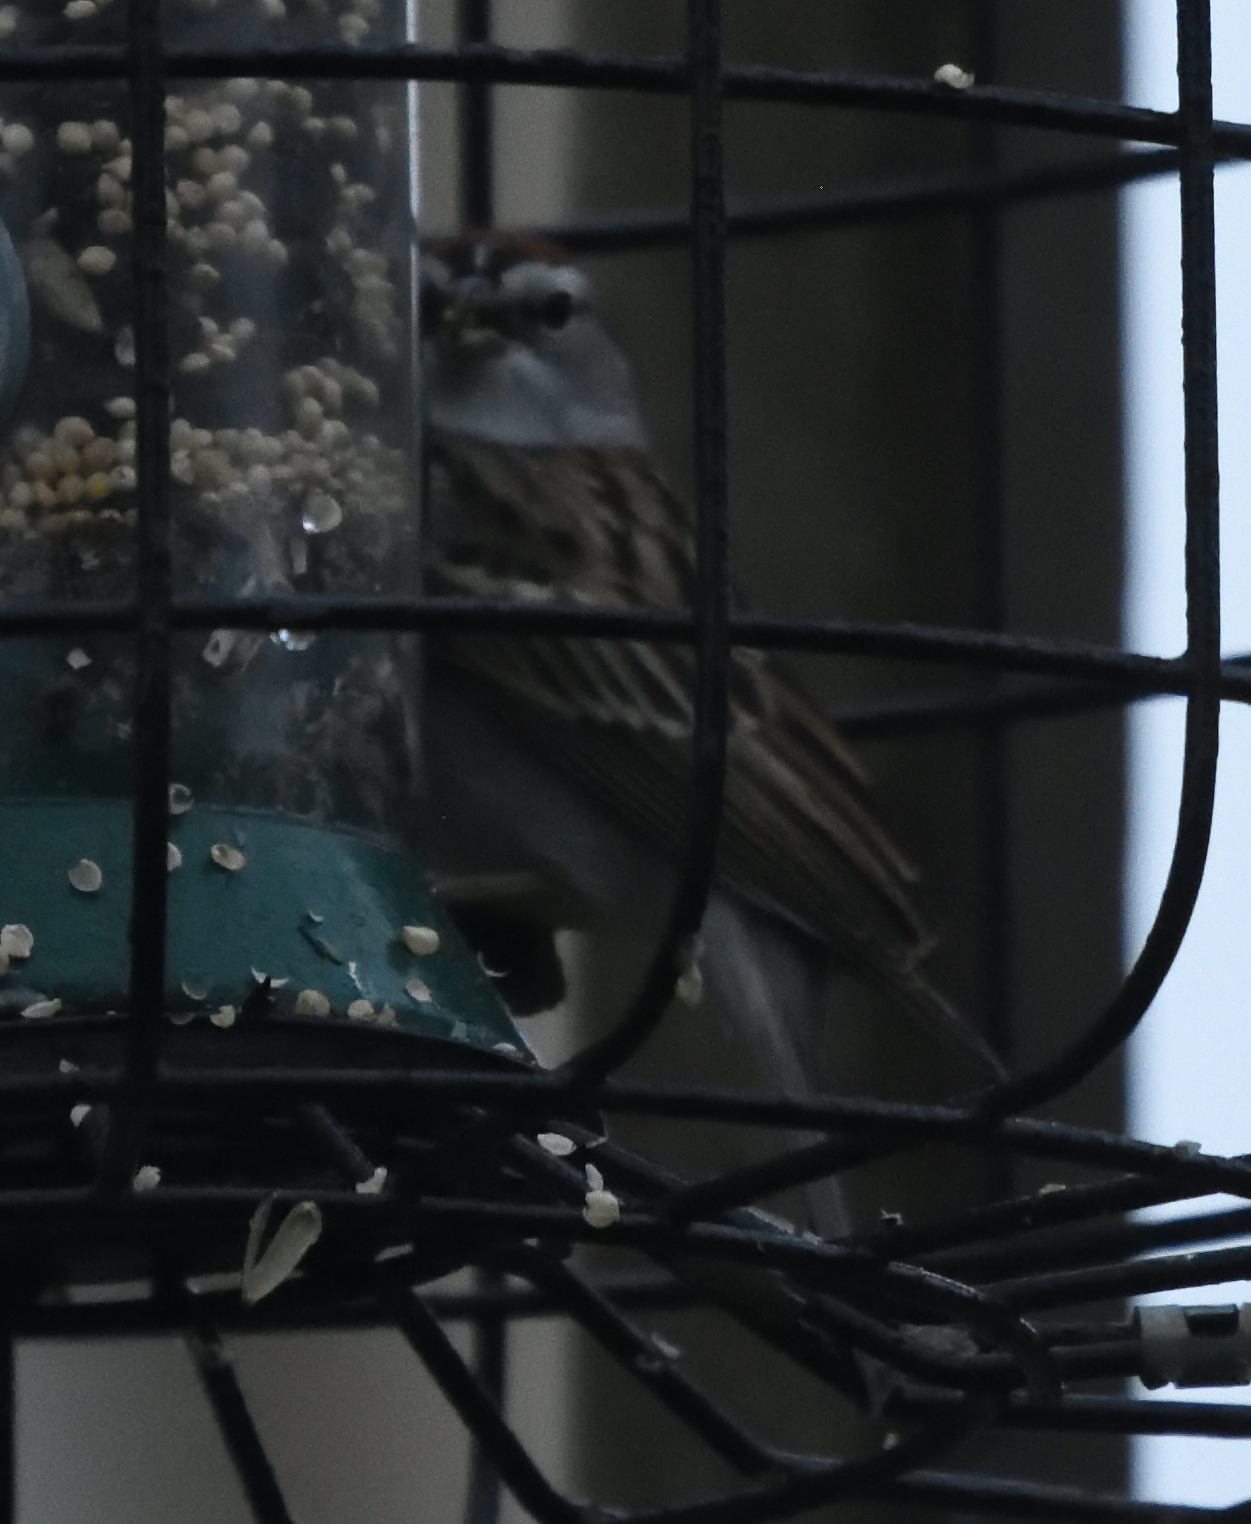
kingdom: Animalia
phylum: Chordata
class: Aves
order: Passeriformes
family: Passerellidae
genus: Spizella
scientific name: Spizella passerina
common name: Chipping sparrow
